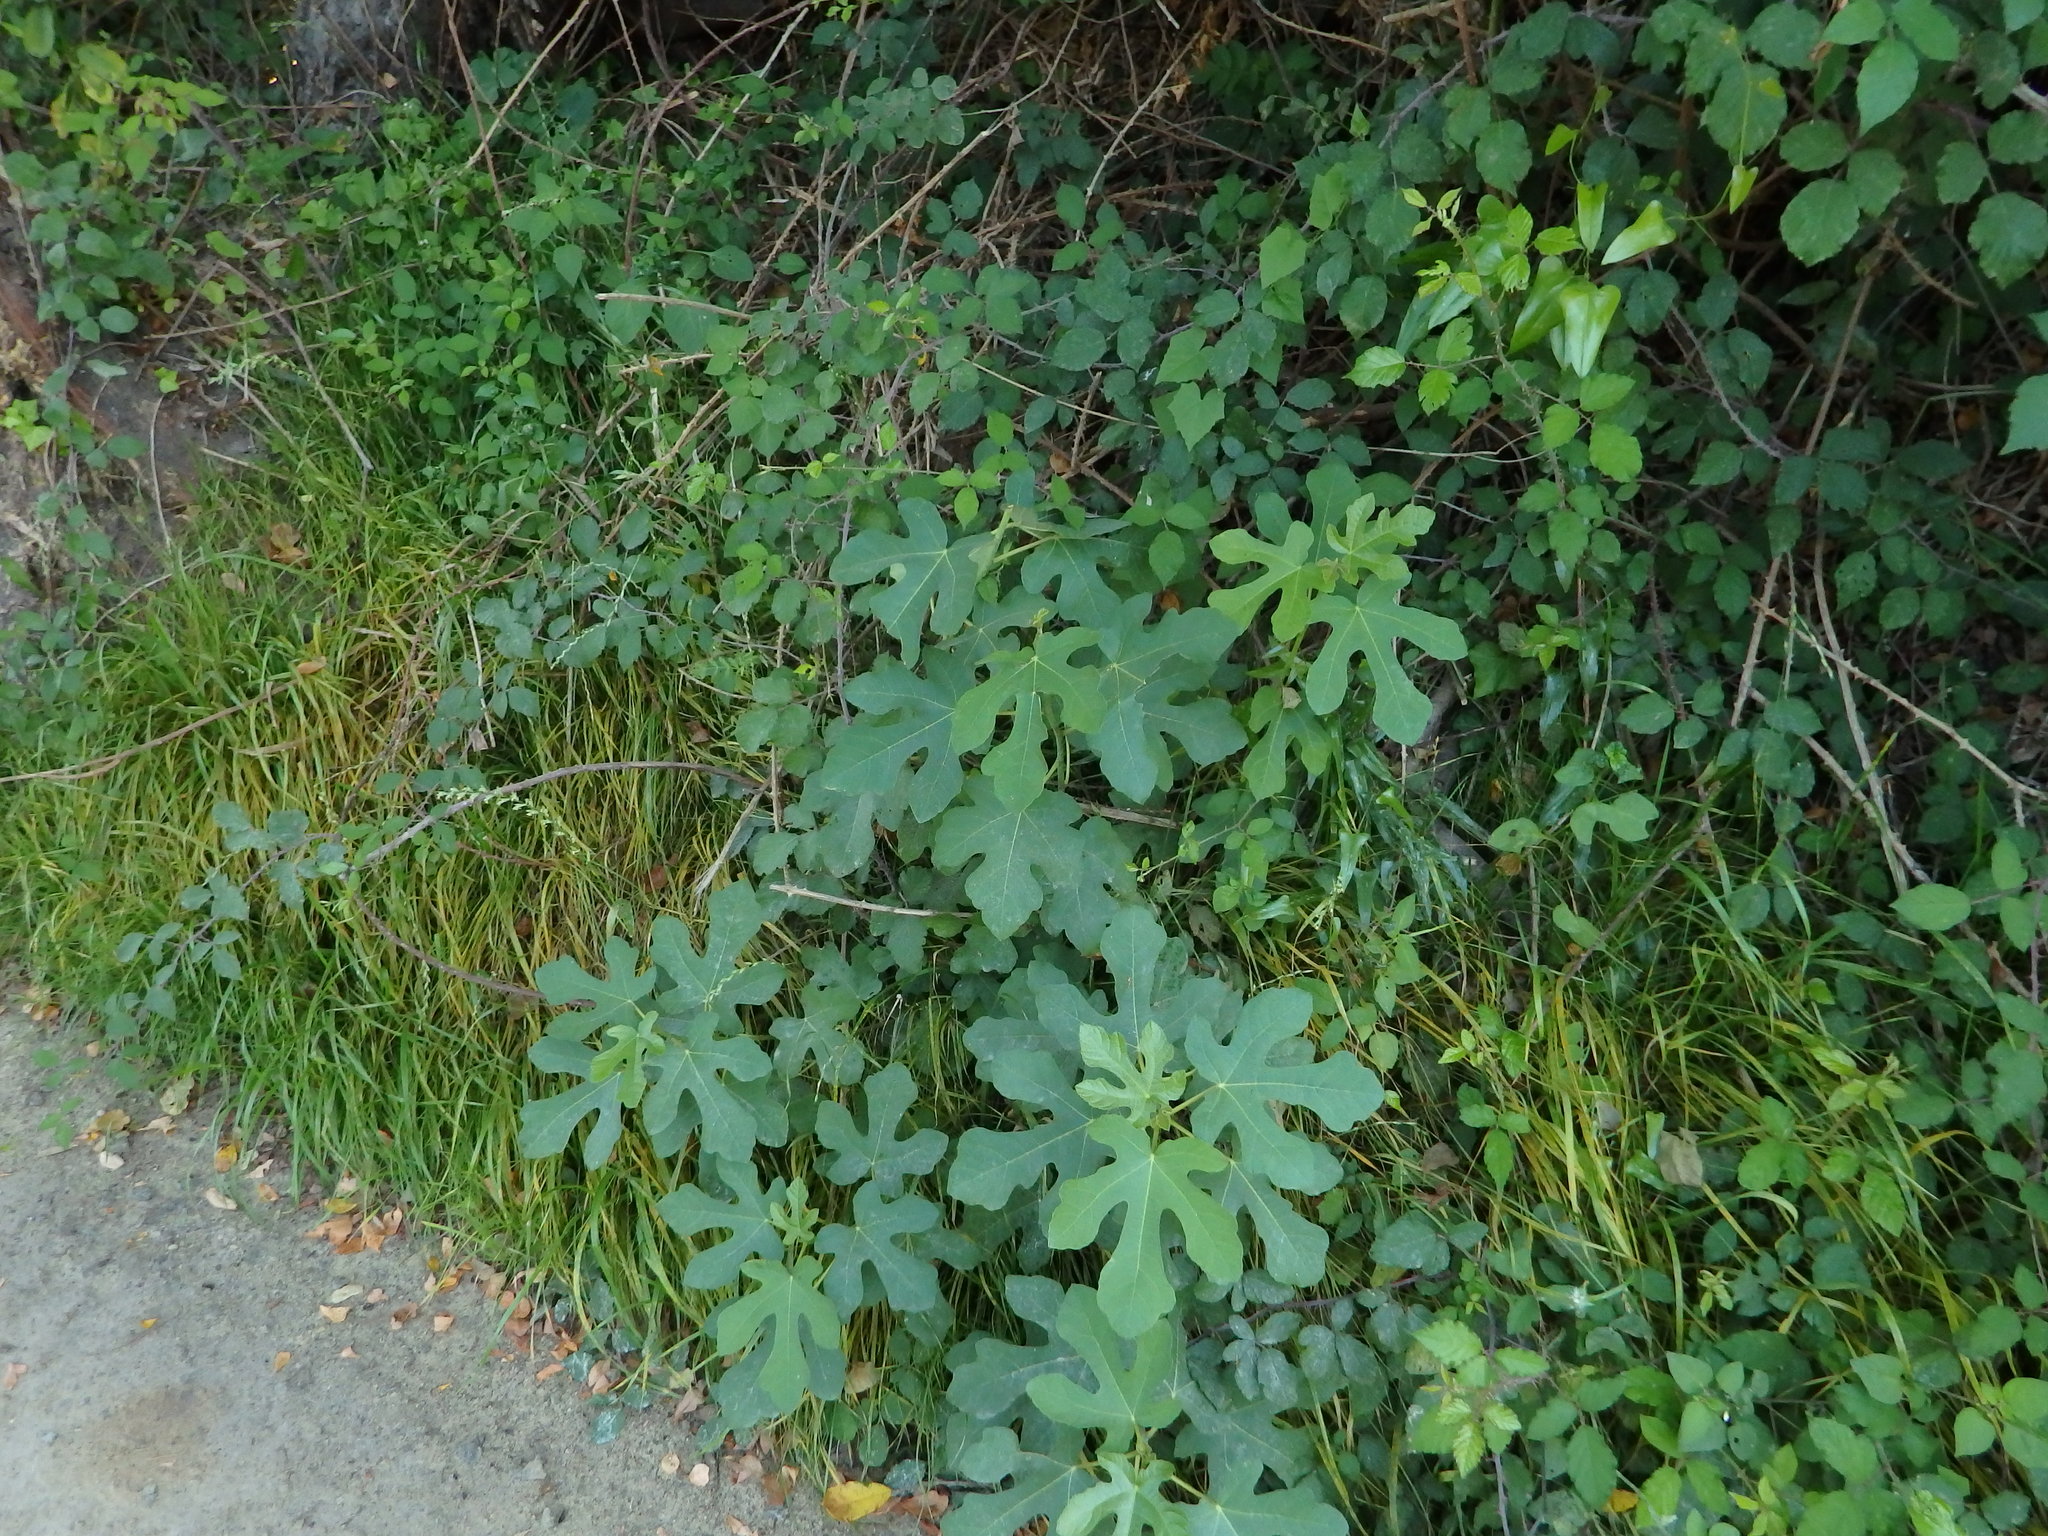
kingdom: Plantae
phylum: Tracheophyta
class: Magnoliopsida
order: Rosales
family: Moraceae
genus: Ficus
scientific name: Ficus carica
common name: Fig
